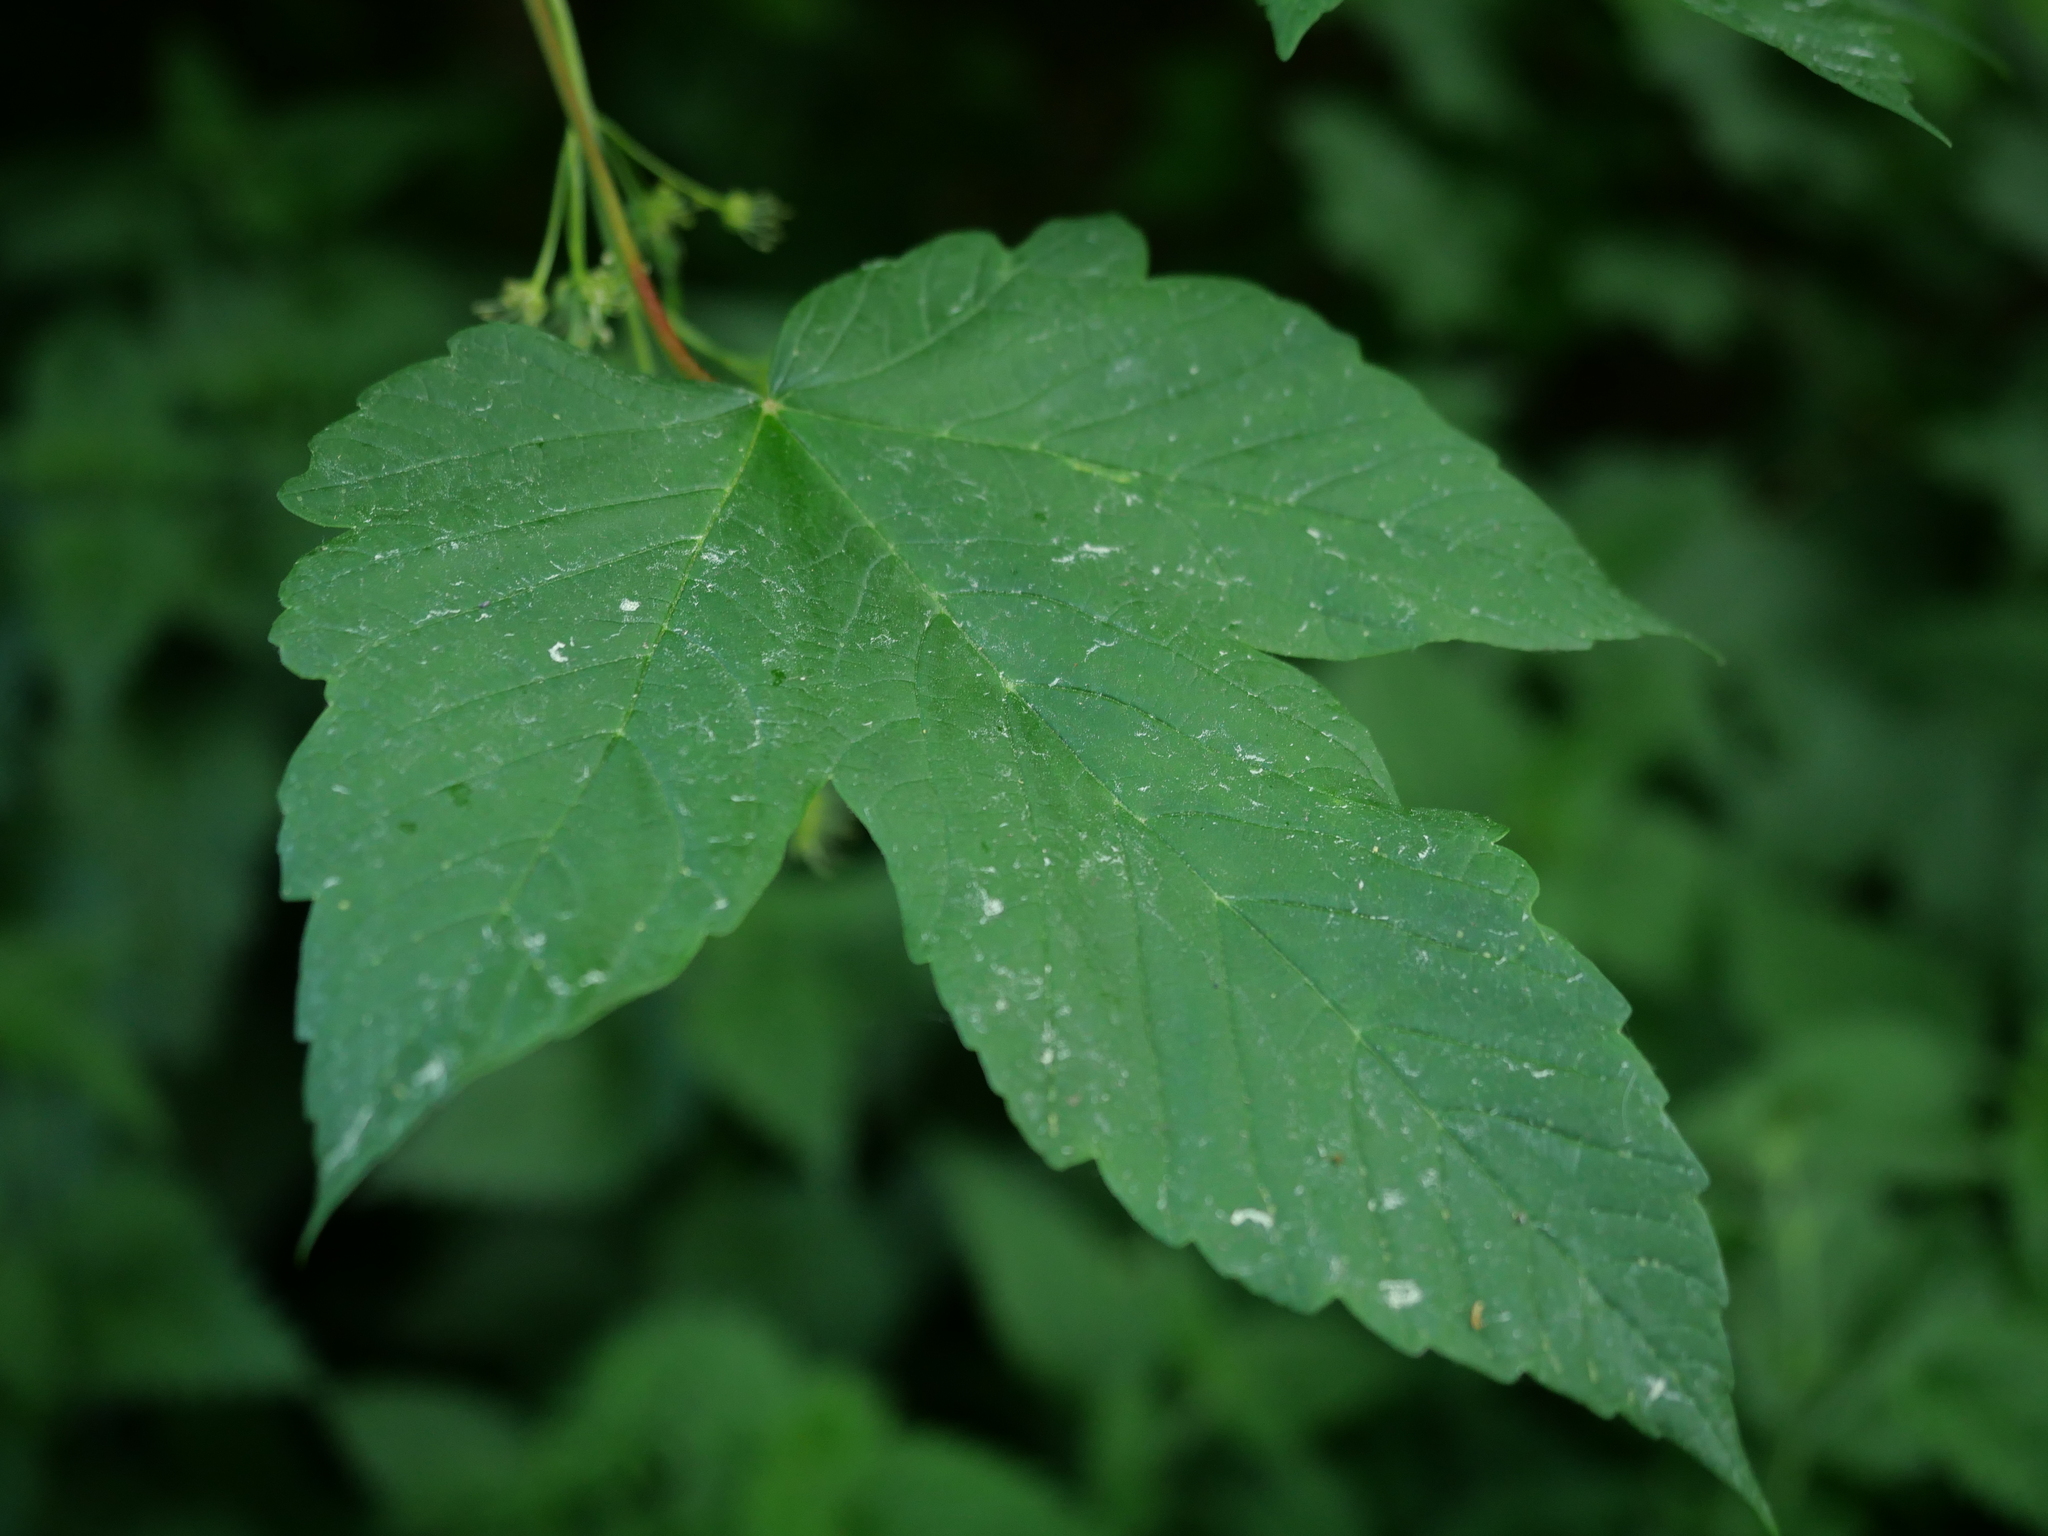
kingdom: Plantae
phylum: Tracheophyta
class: Magnoliopsida
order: Sapindales
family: Sapindaceae
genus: Acer
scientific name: Acer pseudoplatanus
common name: Sycamore
